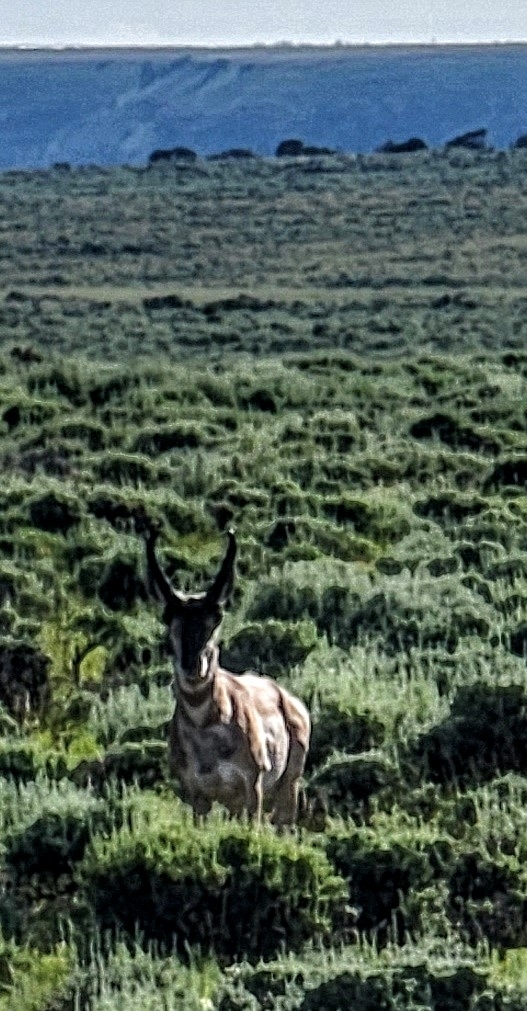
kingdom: Animalia
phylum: Chordata
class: Mammalia
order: Artiodactyla
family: Antilocapridae
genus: Antilocapra
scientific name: Antilocapra americana
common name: Pronghorn
